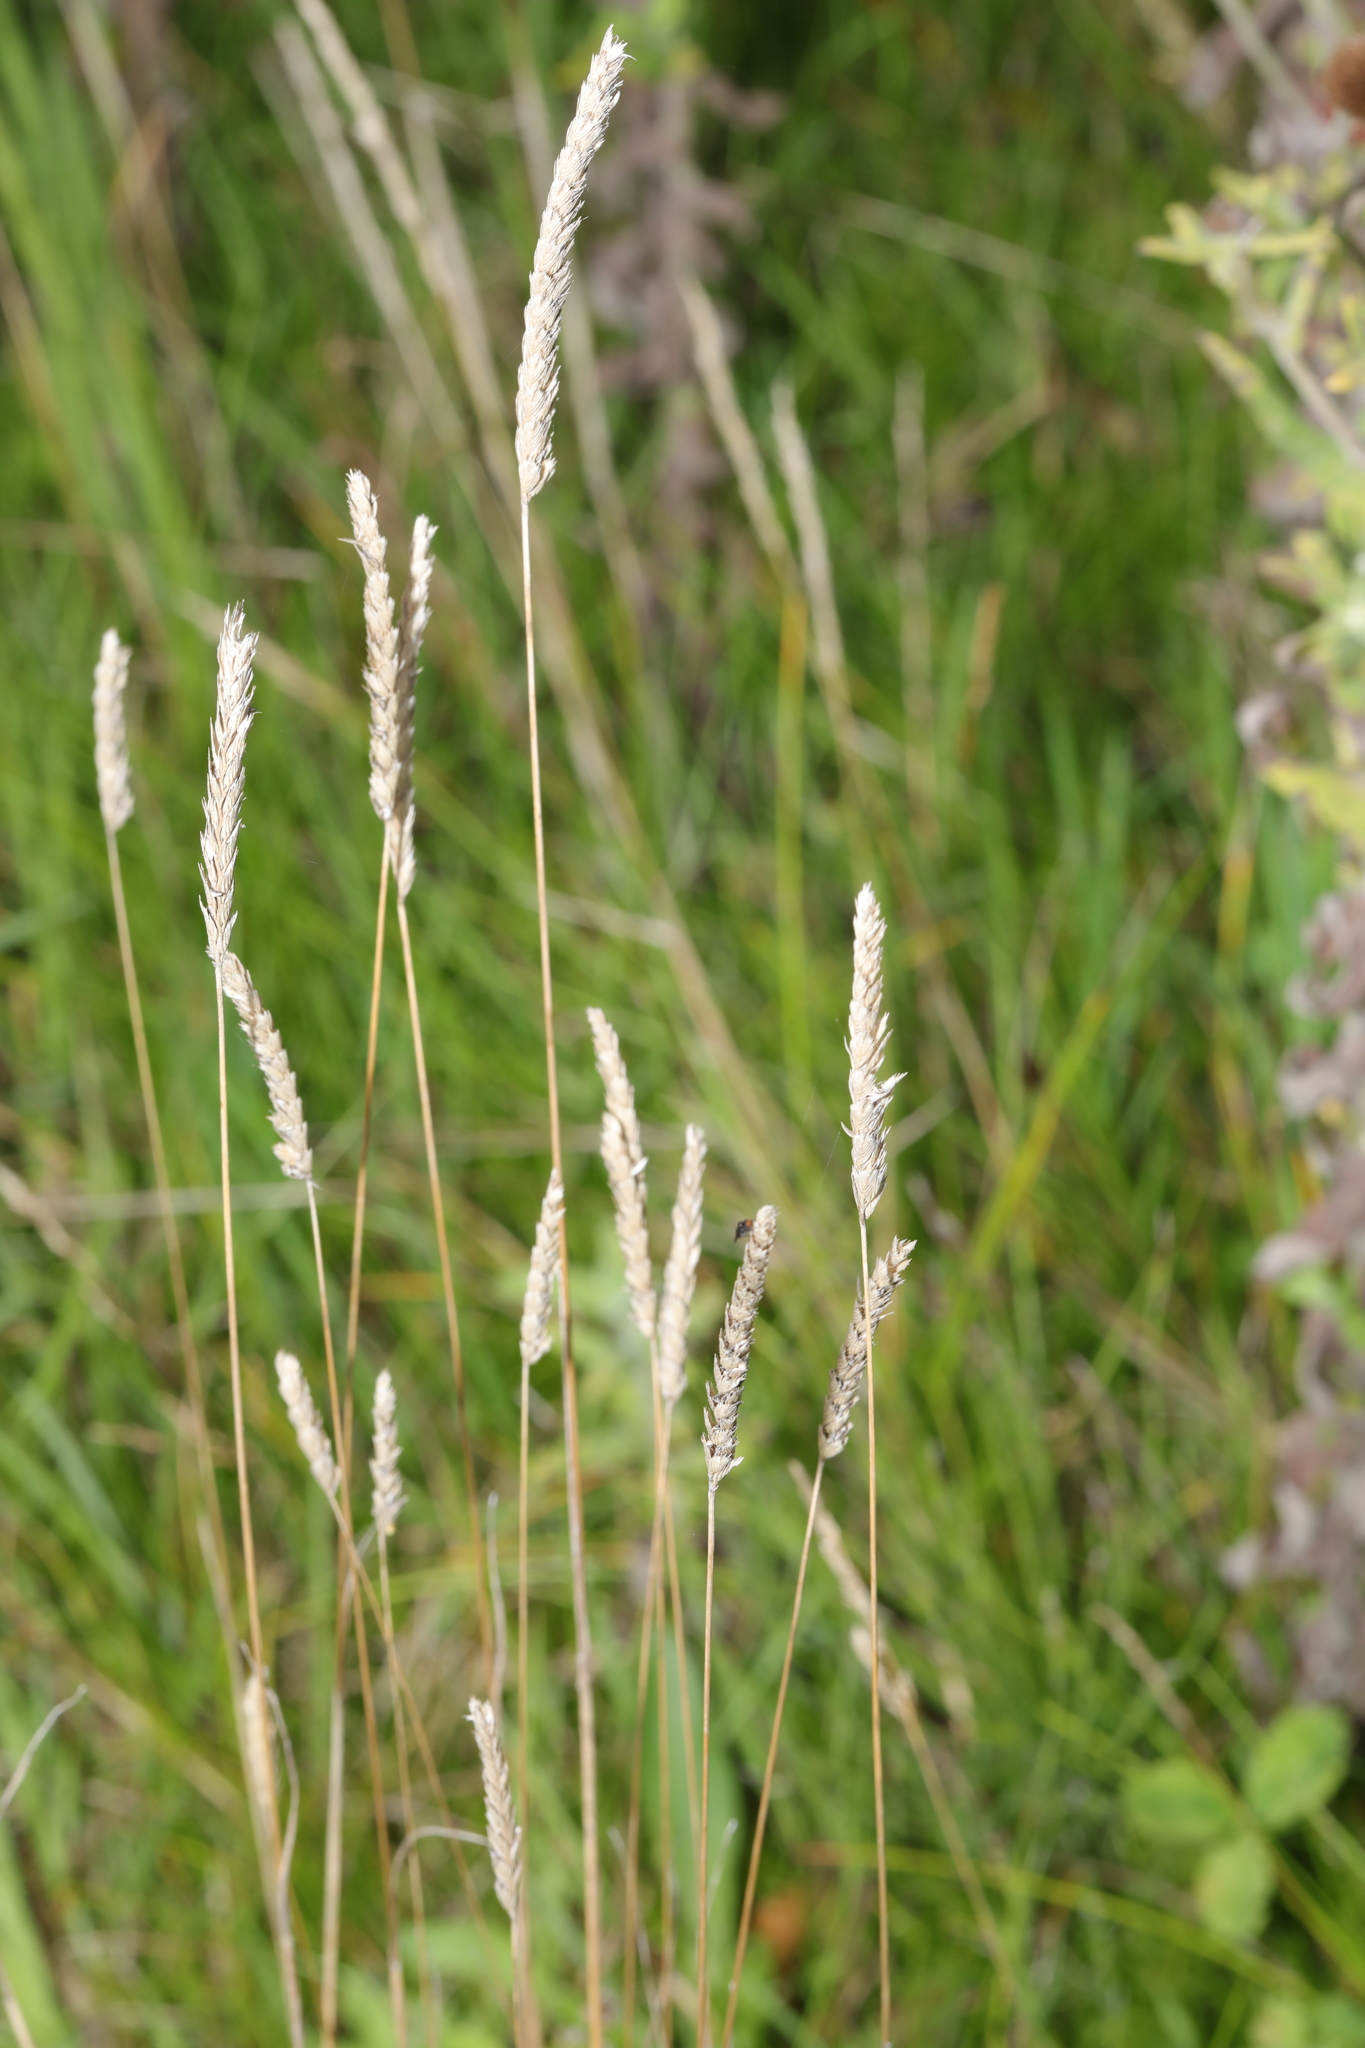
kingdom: Plantae
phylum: Tracheophyta
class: Liliopsida
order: Poales
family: Poaceae
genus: Cynosurus
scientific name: Cynosurus cristatus
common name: Crested dog's-tail
